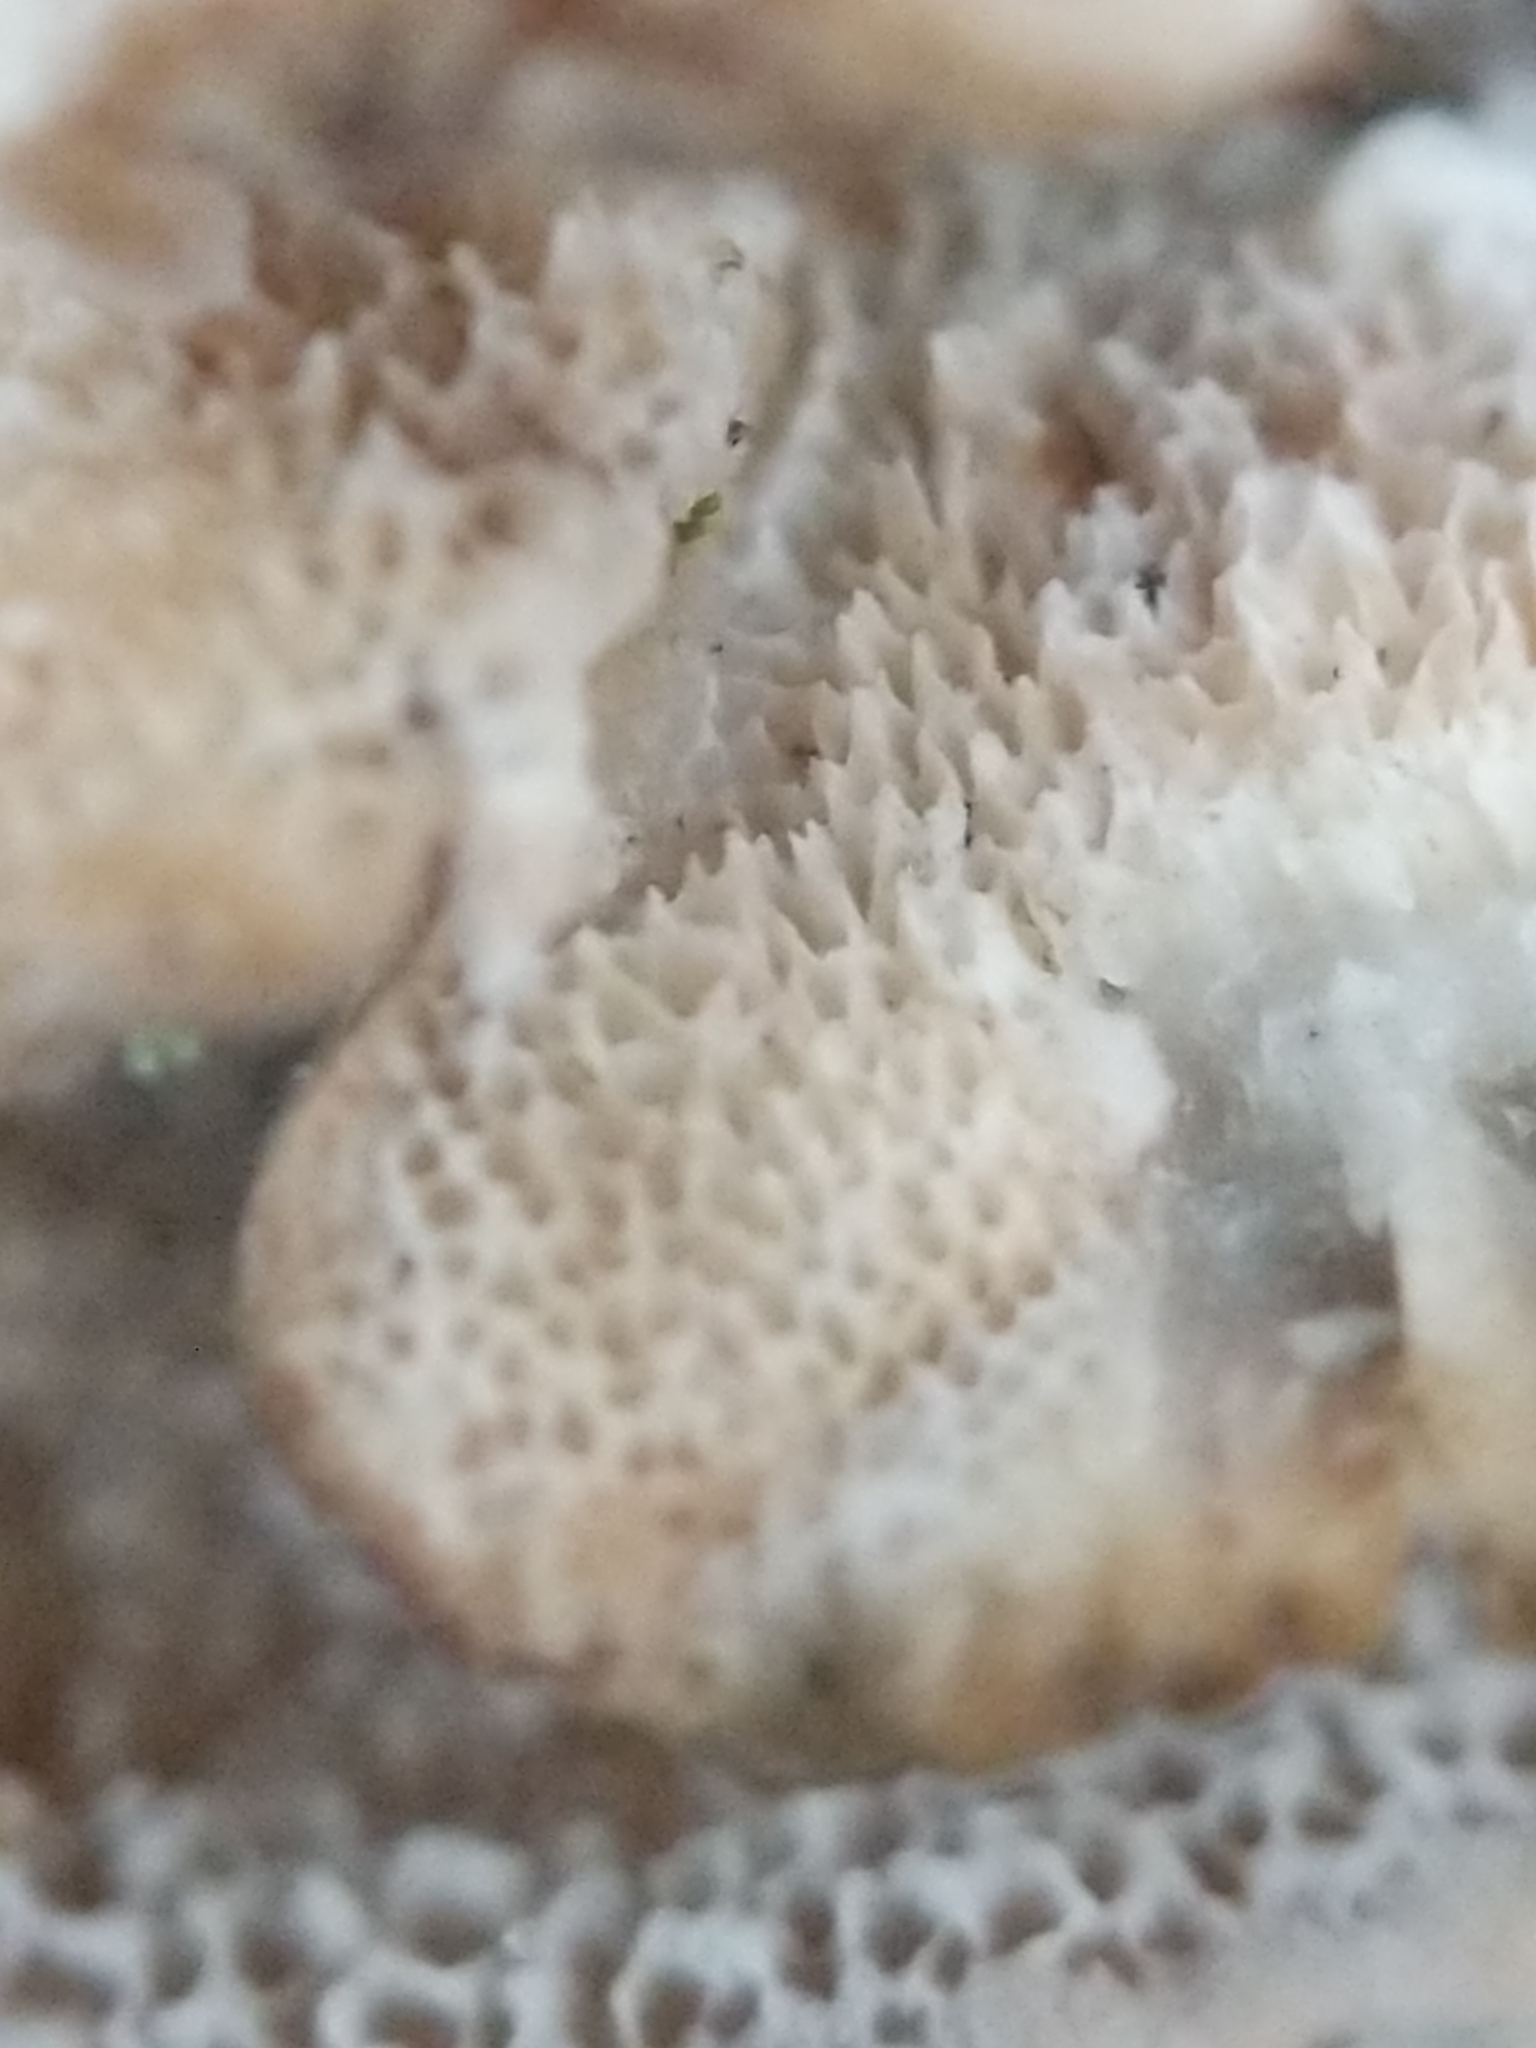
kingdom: Fungi
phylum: Basidiomycota
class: Agaricomycetes
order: Polyporales
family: Polyporaceae
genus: Trametes
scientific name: Trametes versicolor
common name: Turkeytail
